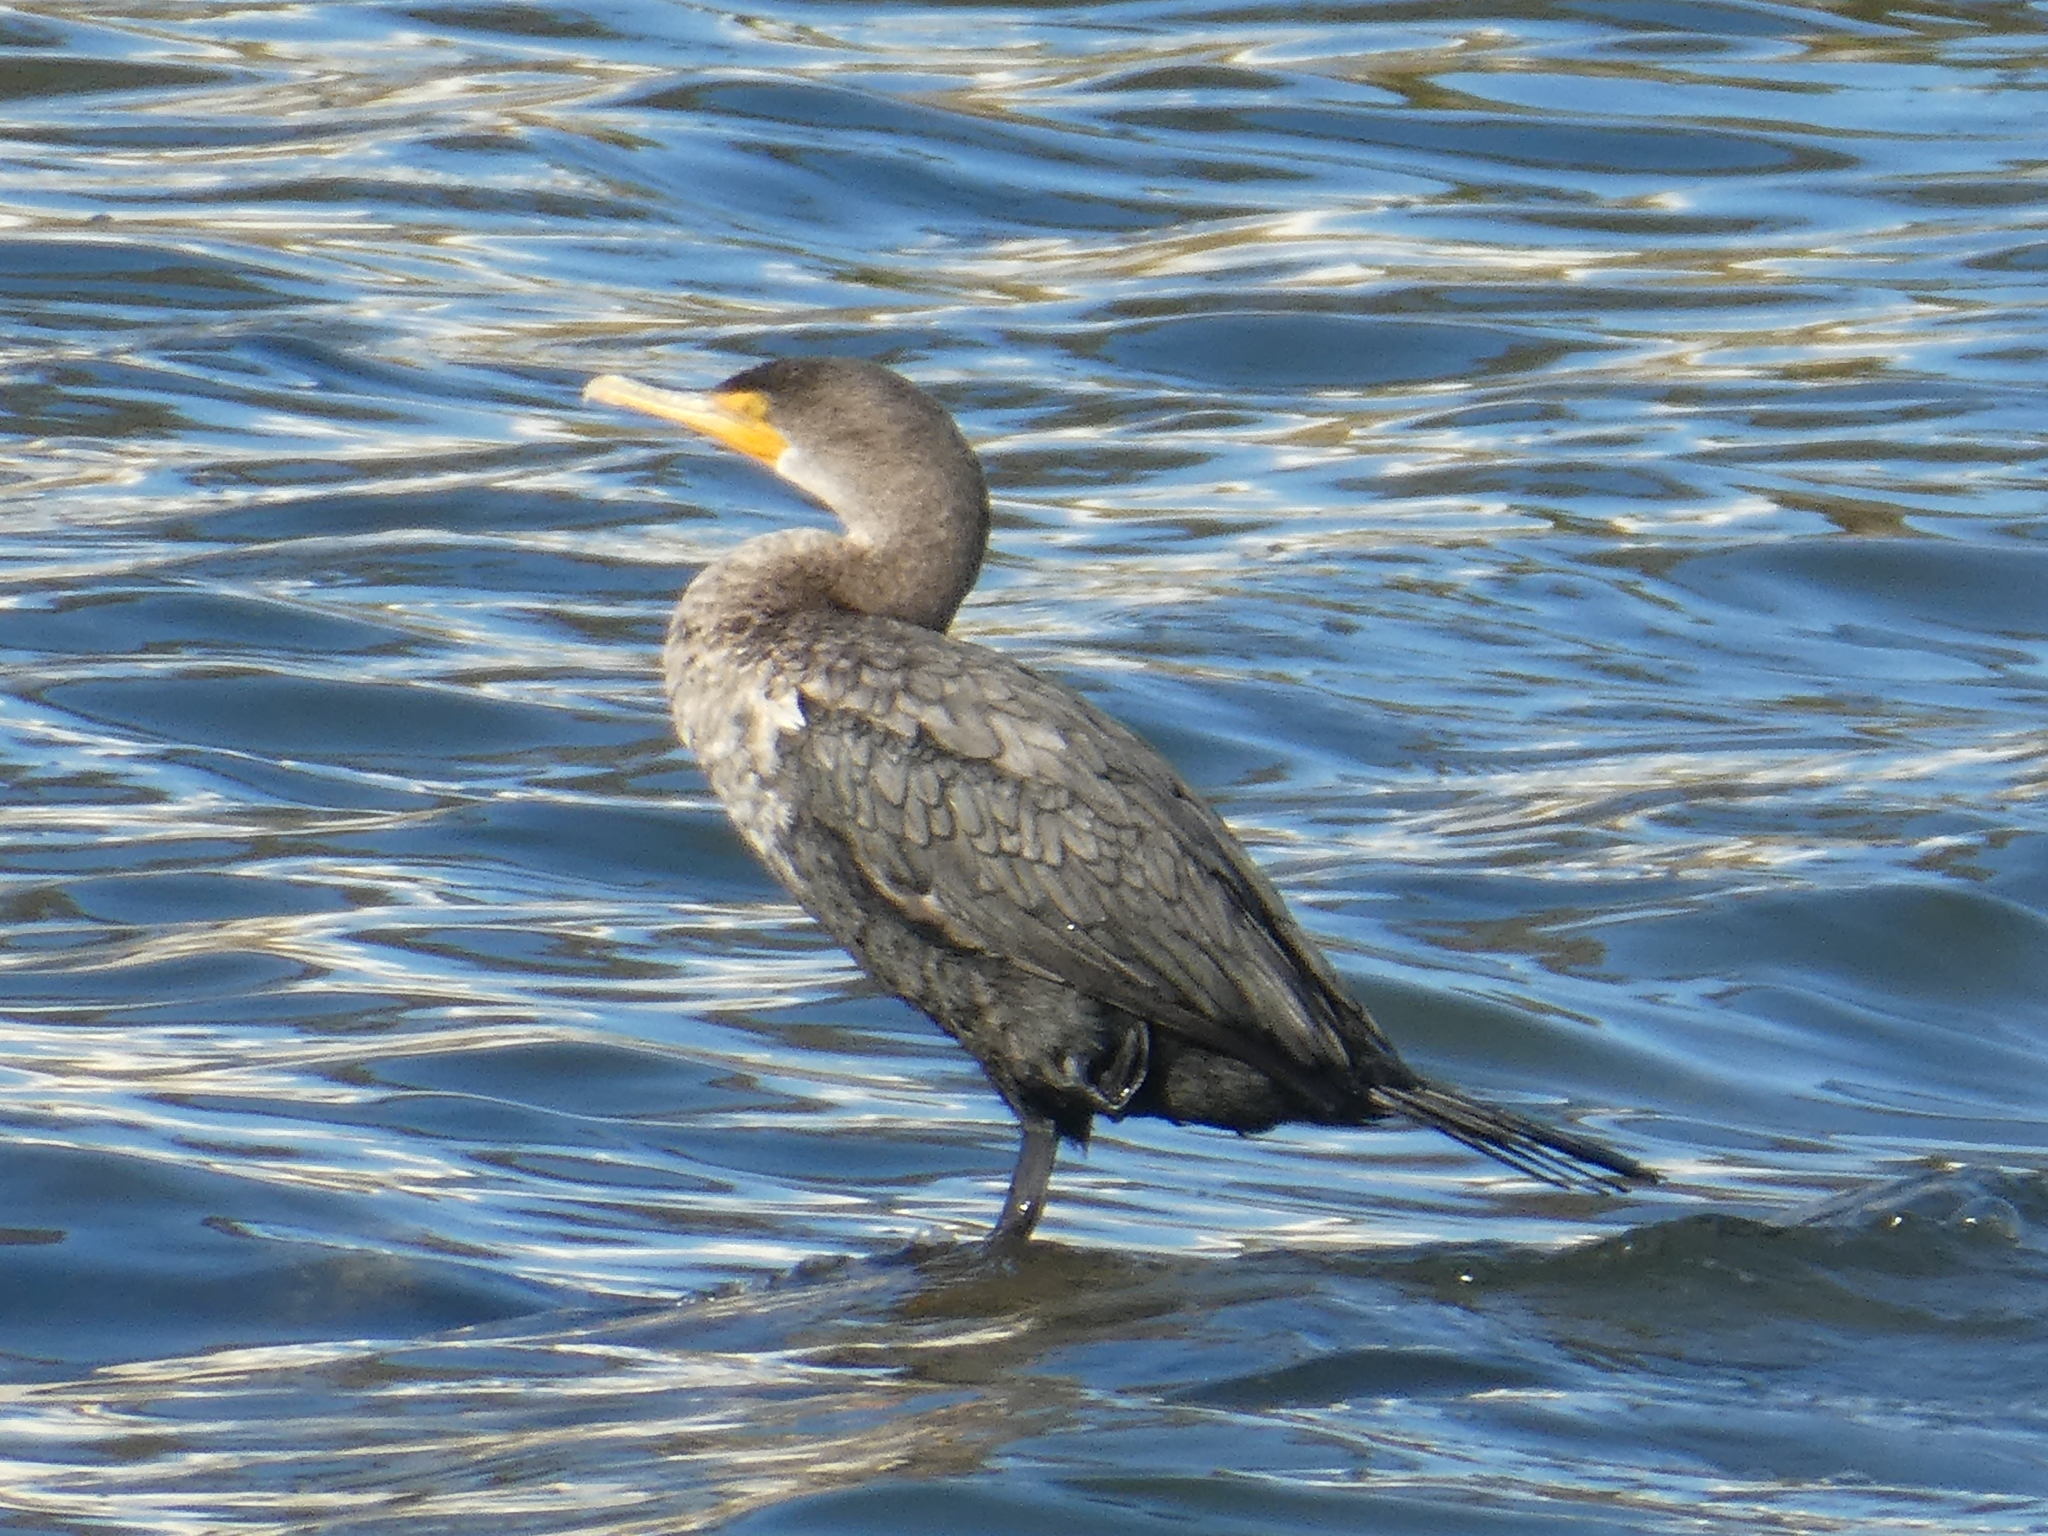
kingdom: Animalia
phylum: Chordata
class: Aves
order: Suliformes
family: Phalacrocoracidae
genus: Phalacrocorax
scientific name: Phalacrocorax auritus
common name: Double-crested cormorant
